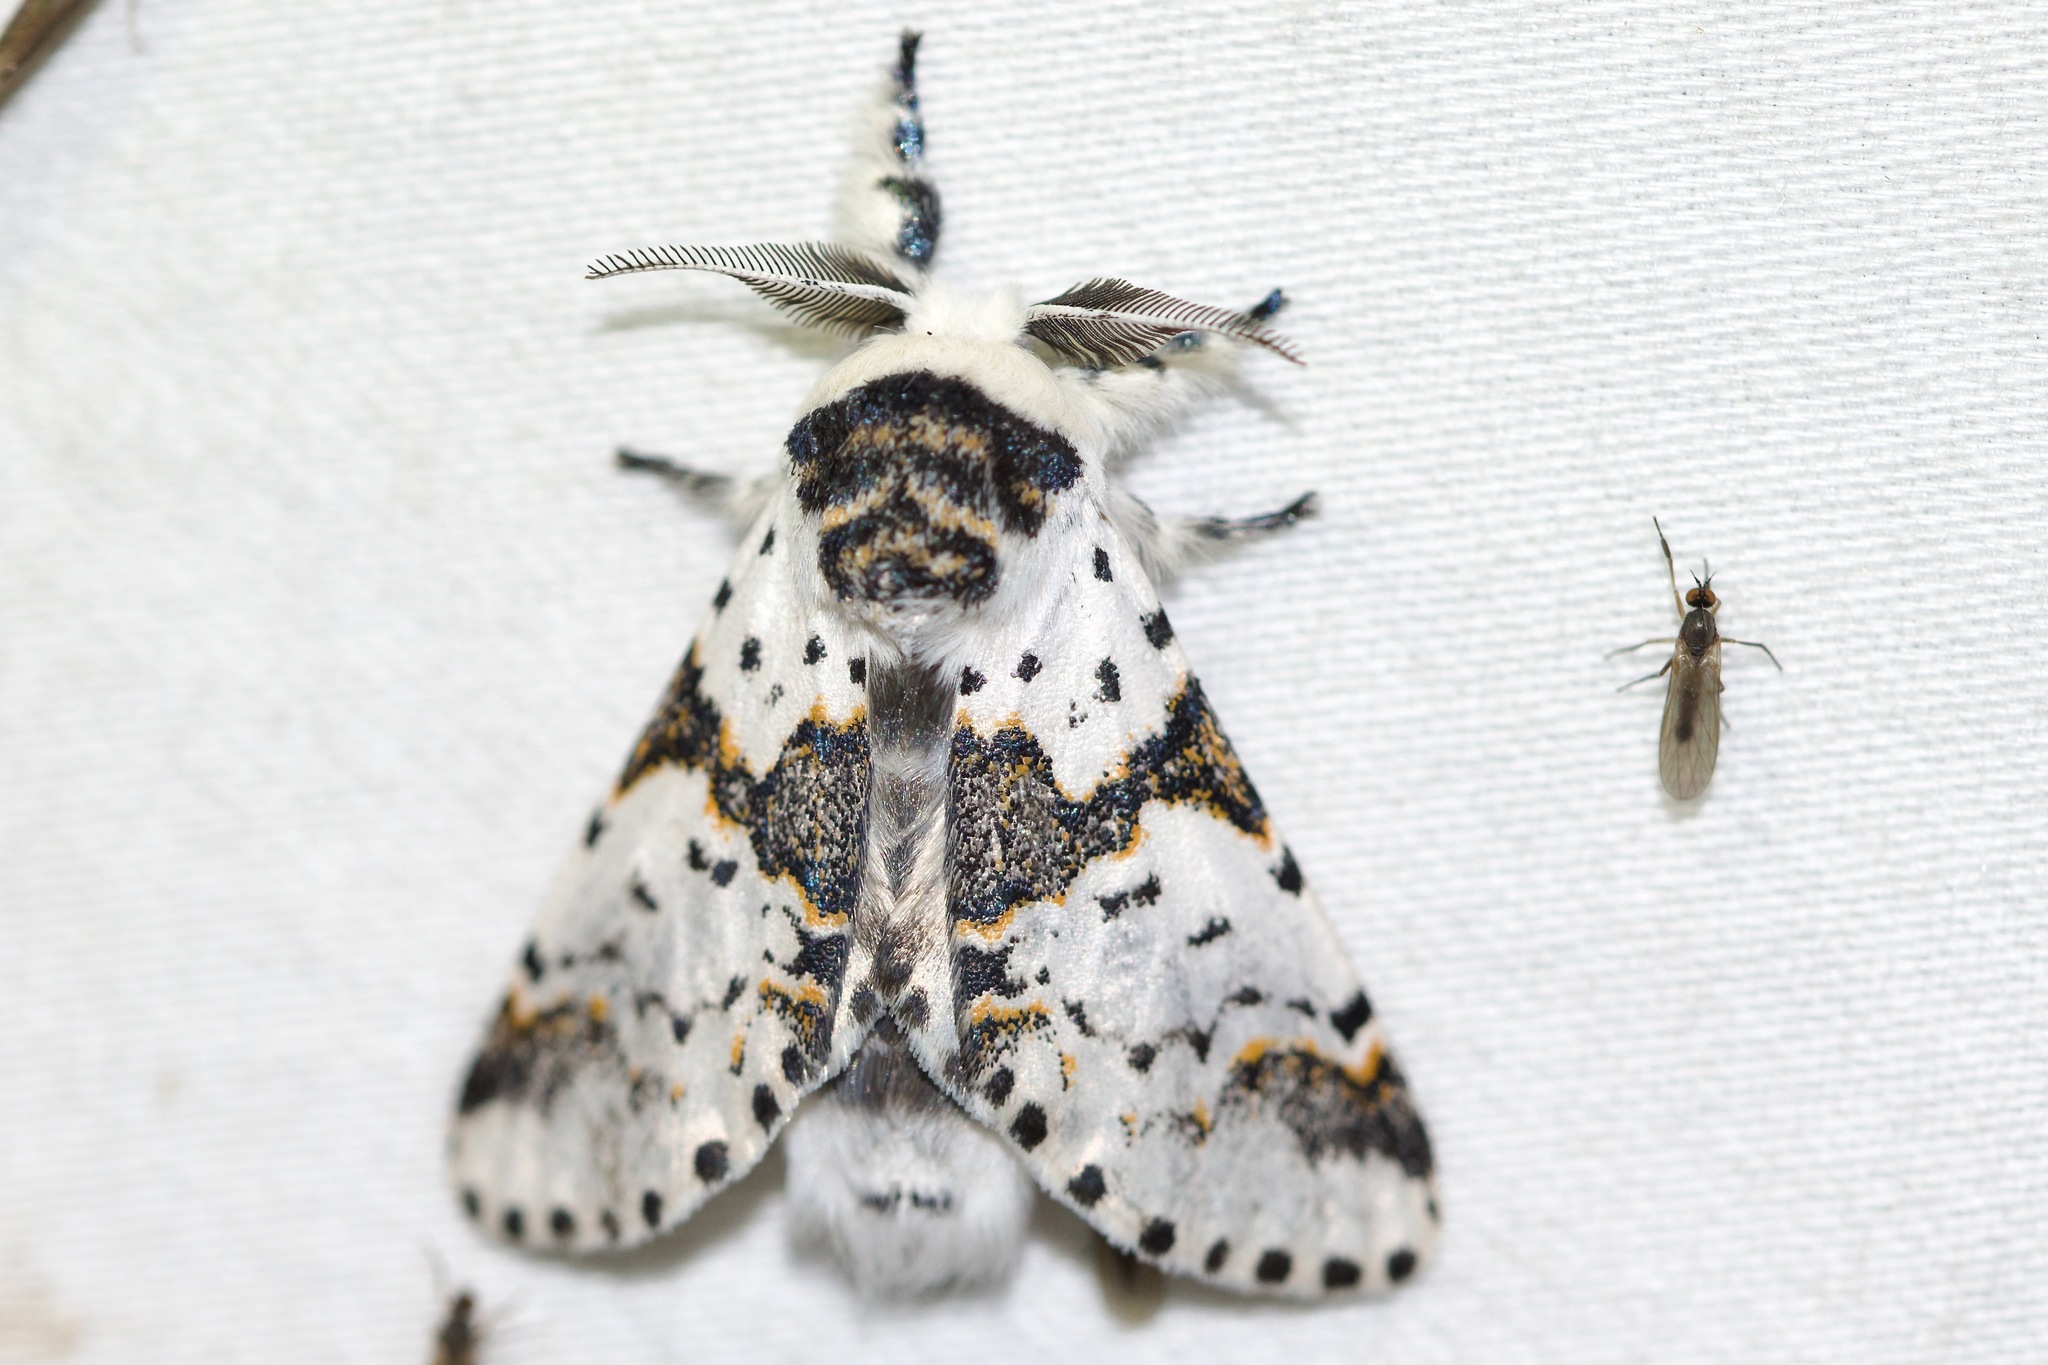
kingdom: Animalia
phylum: Arthropoda
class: Insecta
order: Lepidoptera
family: Notodontidae
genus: Furcula
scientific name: Furcula borealis
